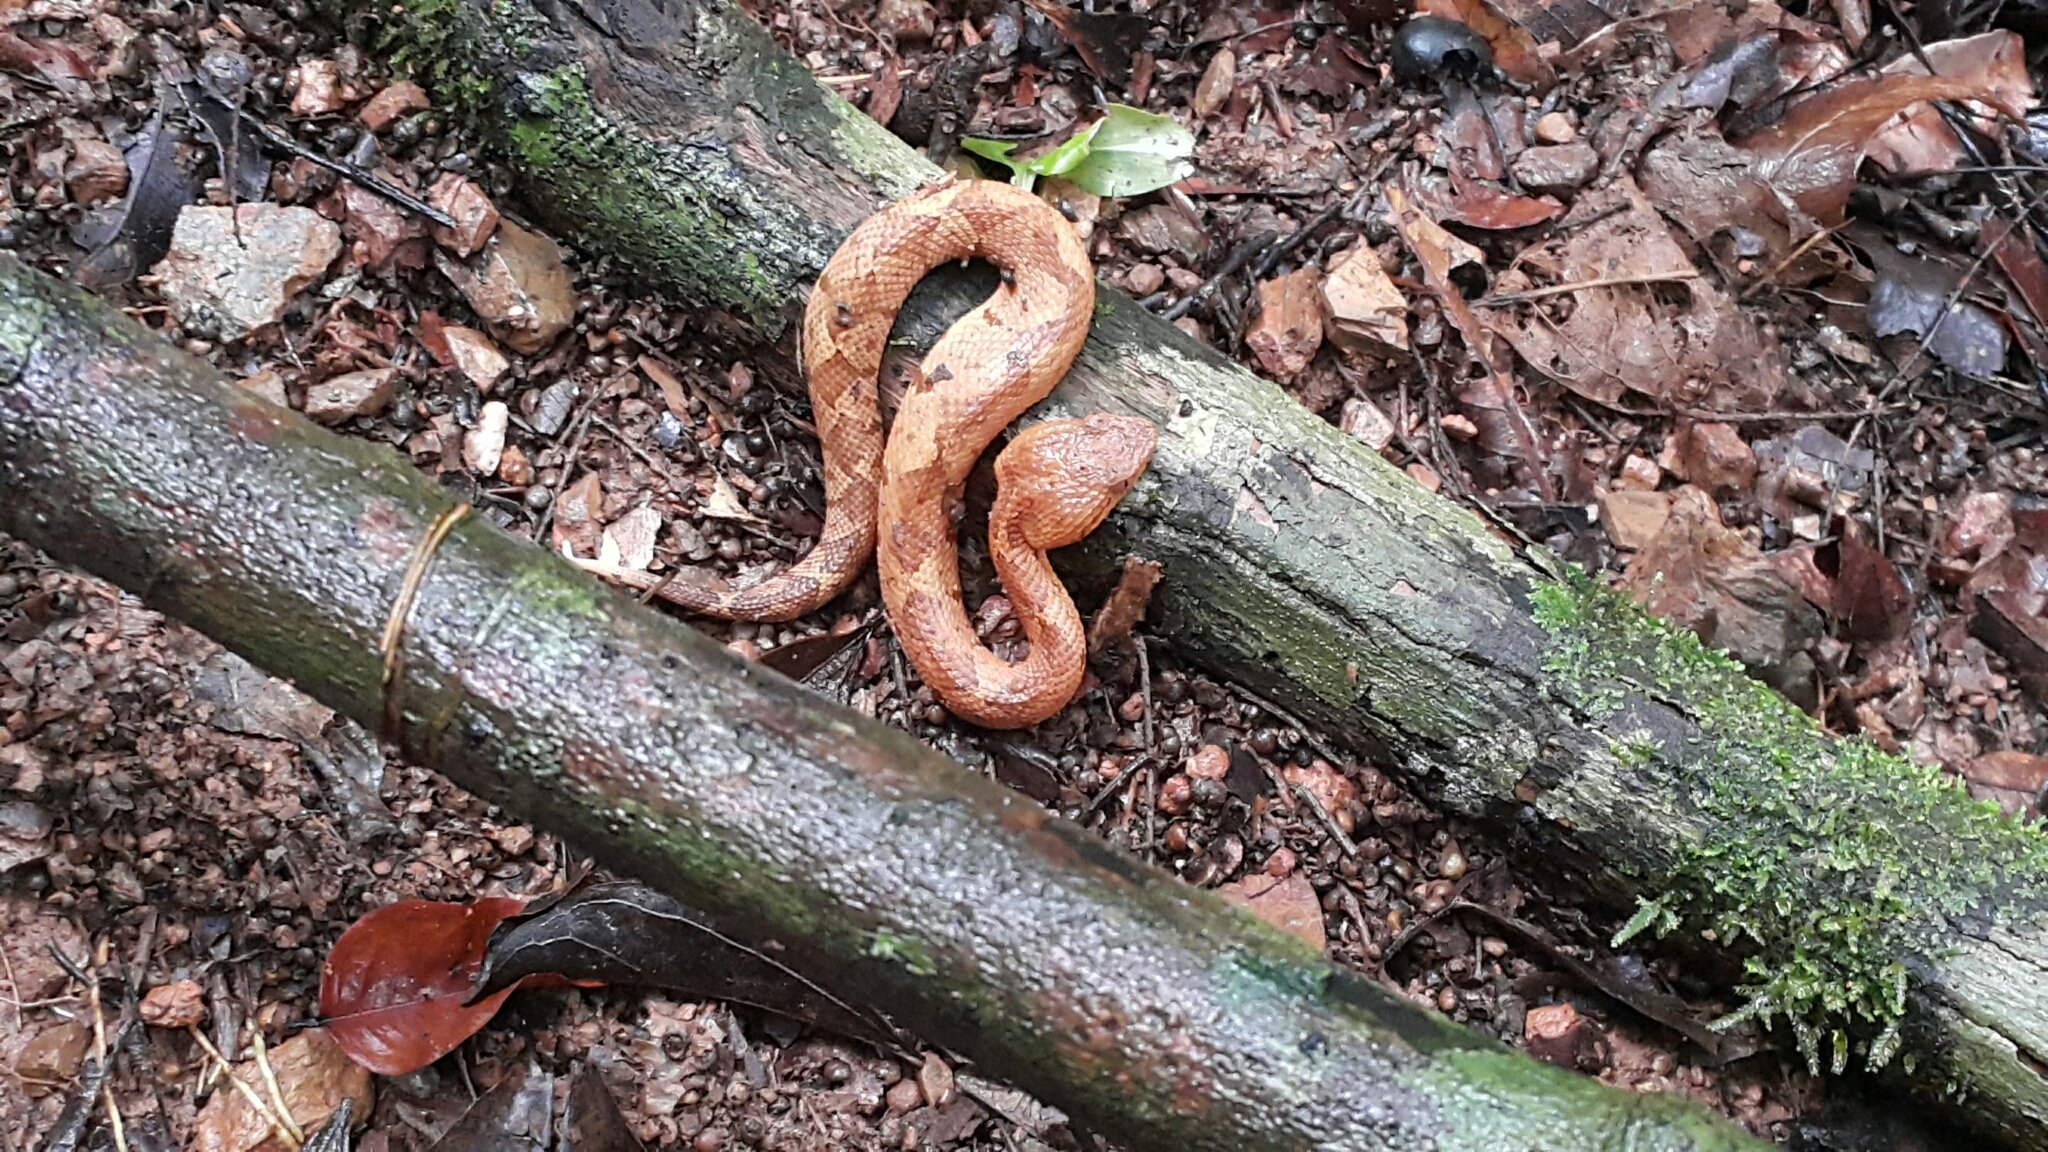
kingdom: Animalia
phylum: Chordata
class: Squamata
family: Viperidae
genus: Metlapilcoatlus
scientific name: Metlapilcoatlus mexicanus
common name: Central american jumping pit viper
